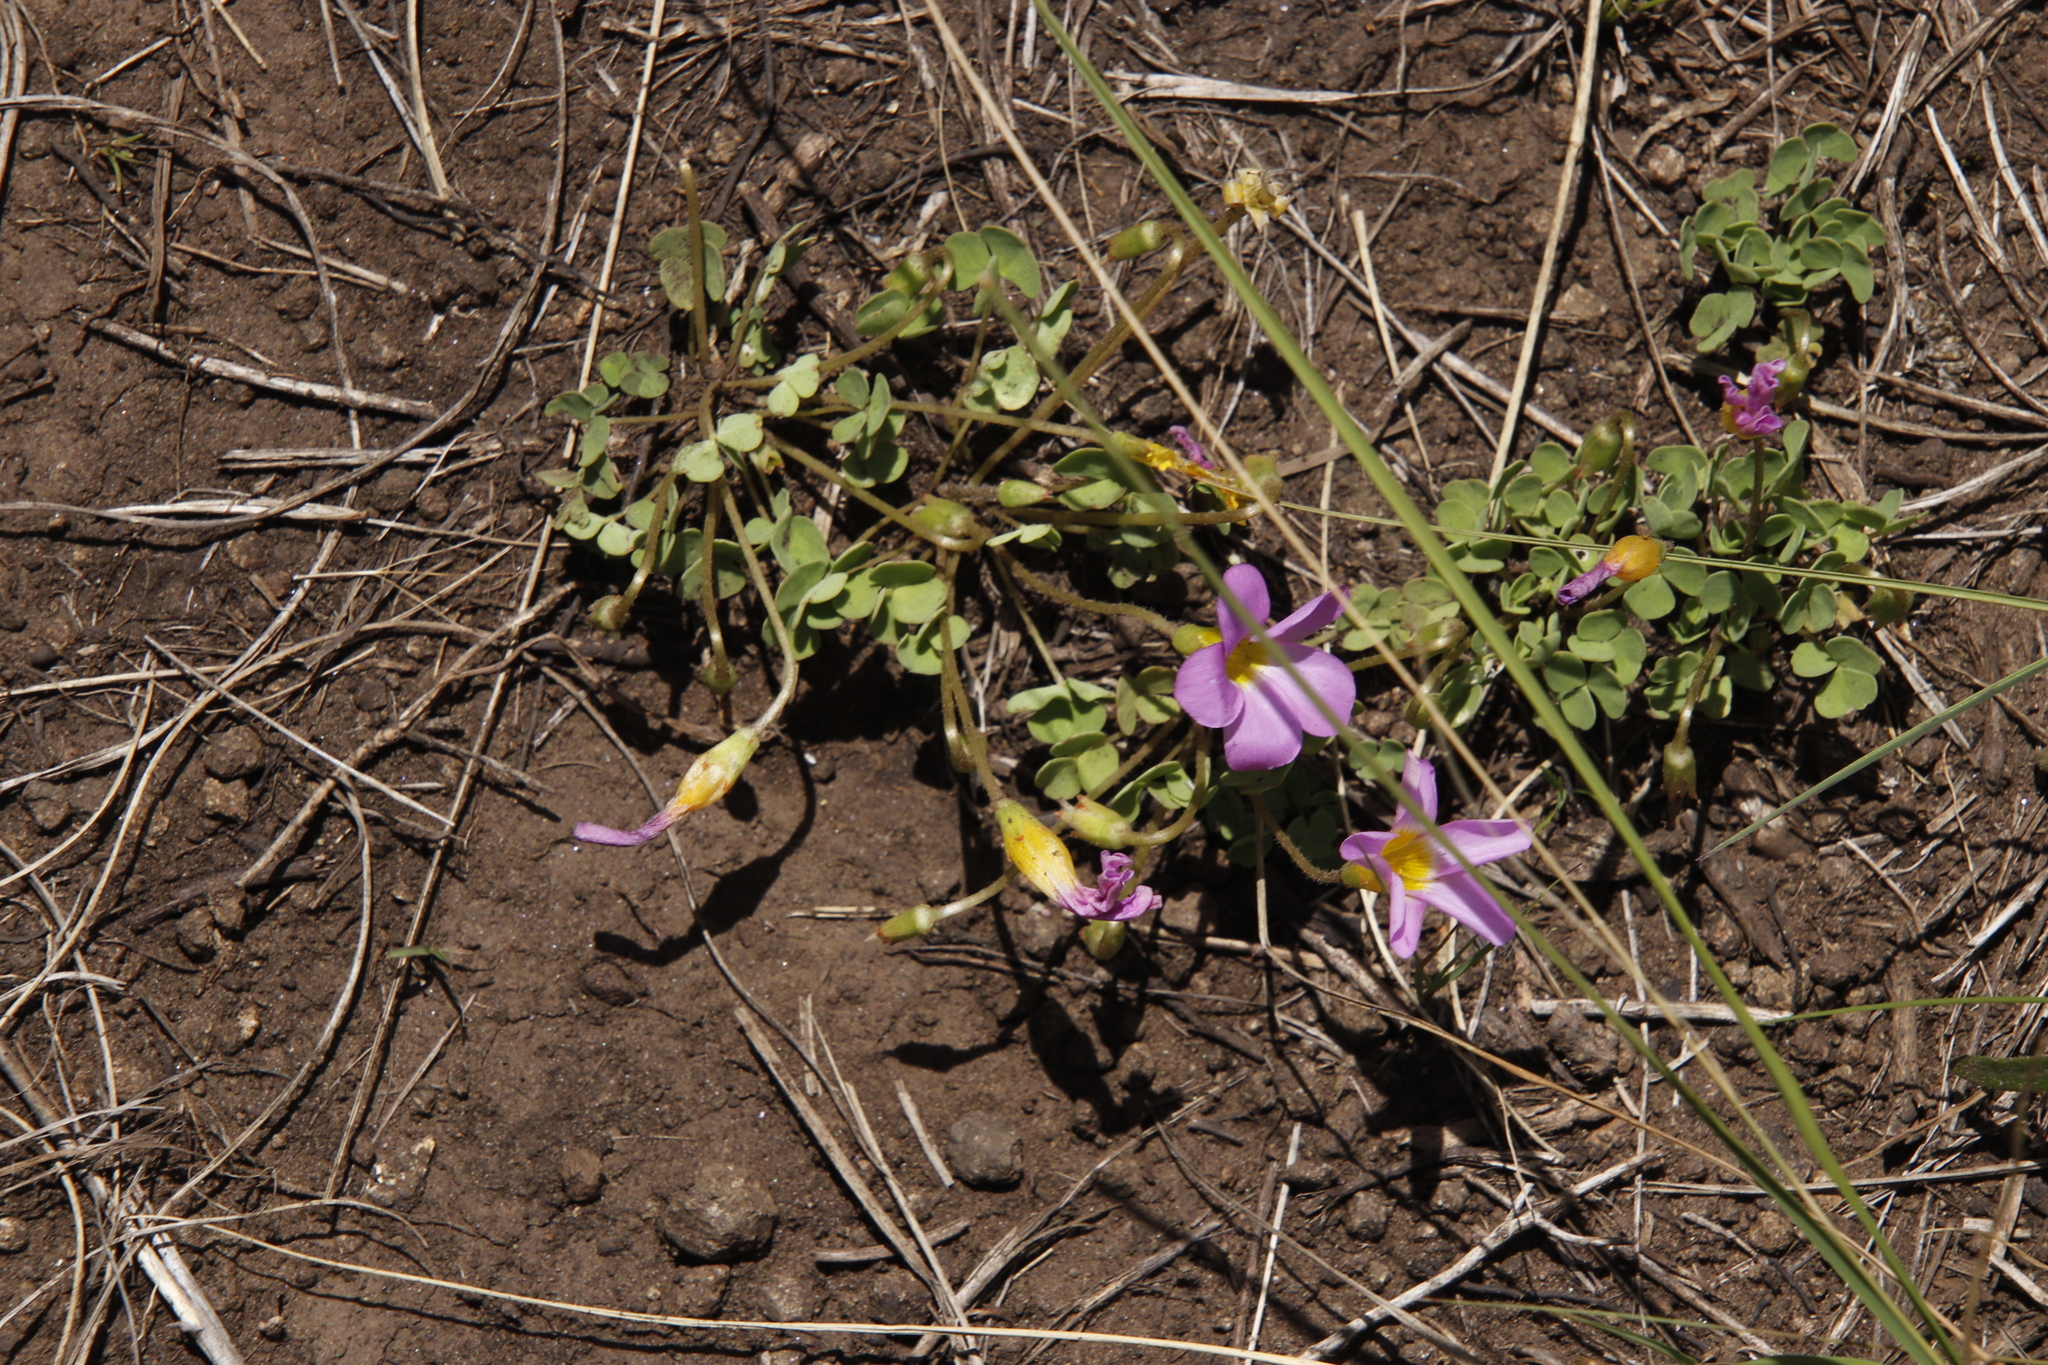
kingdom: Plantae
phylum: Tracheophyta
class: Magnoliopsida
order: Oxalidales
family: Oxalidaceae
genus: Oxalis
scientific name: Oxalis obliquifolia
